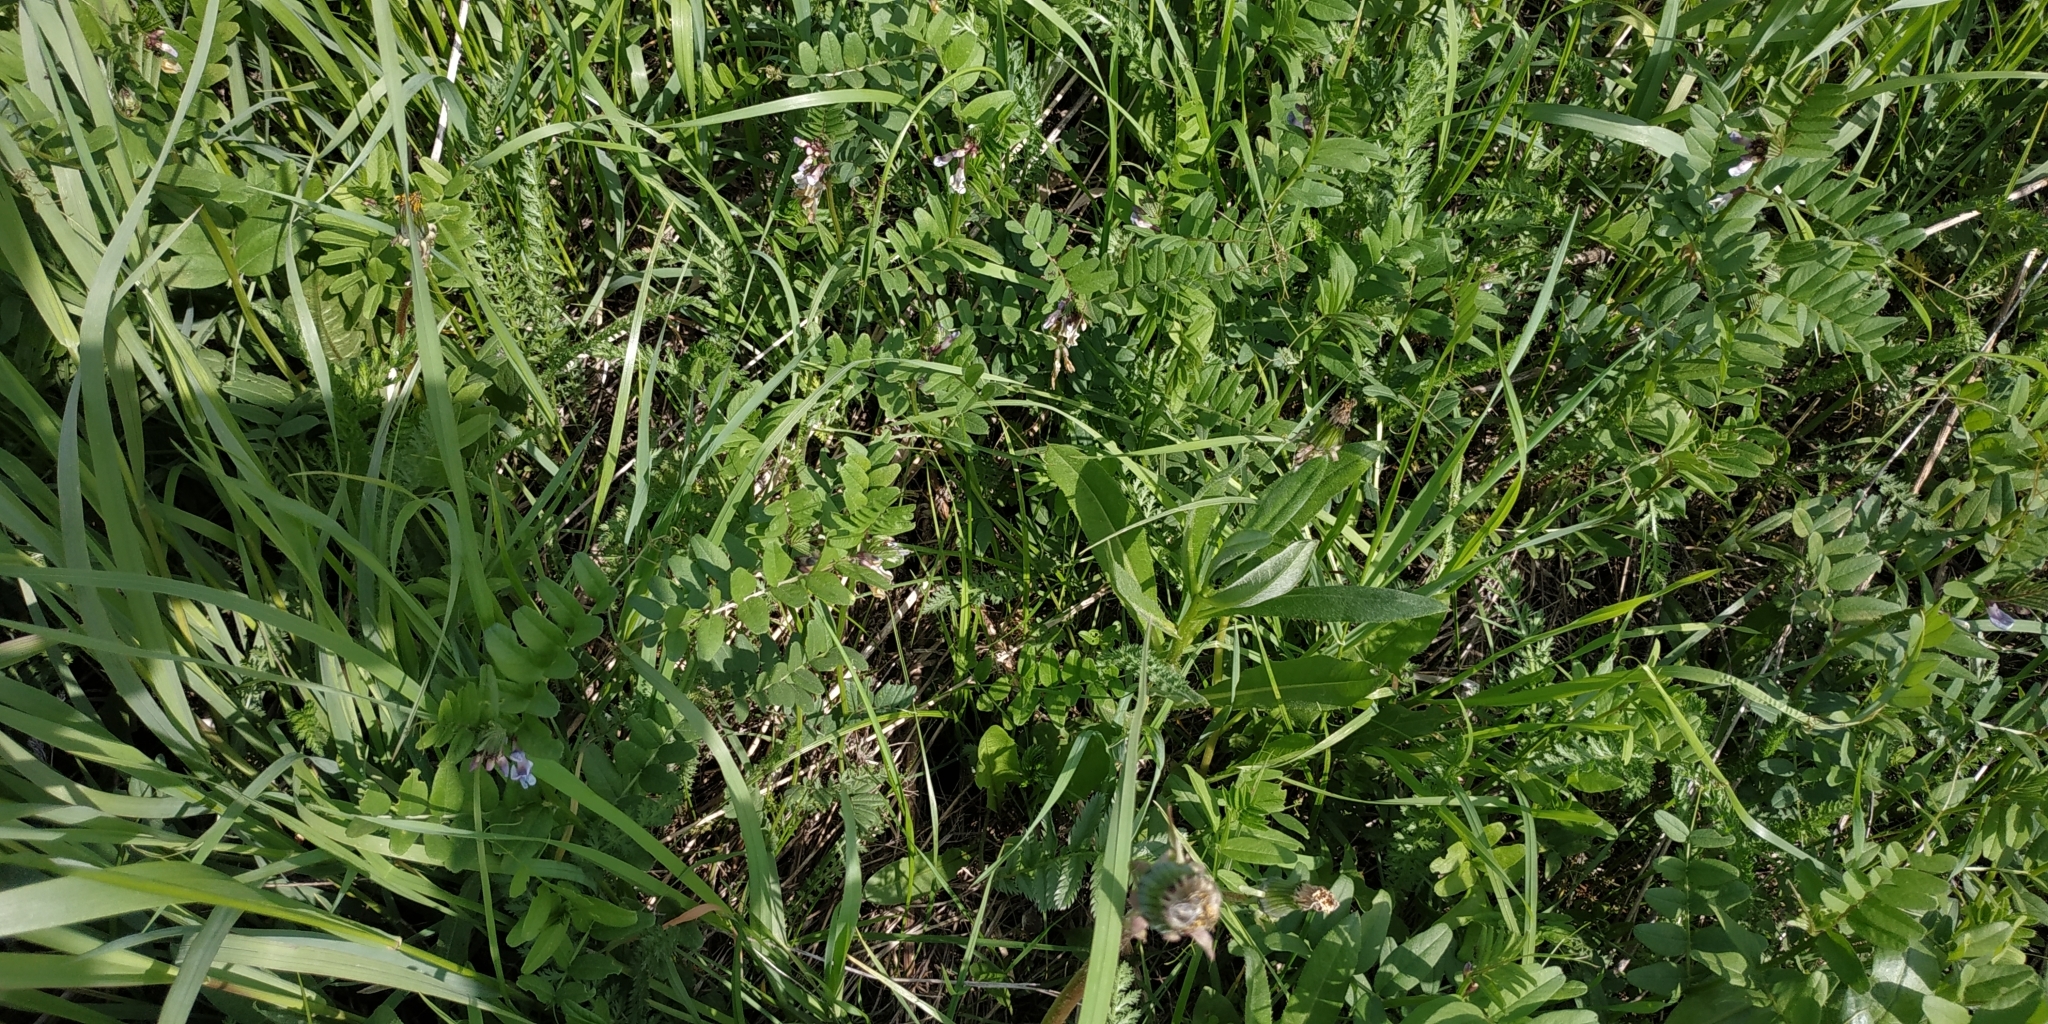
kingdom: Plantae
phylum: Tracheophyta
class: Magnoliopsida
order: Fabales
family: Fabaceae
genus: Vicia
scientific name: Vicia sepium
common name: Bush vetch
